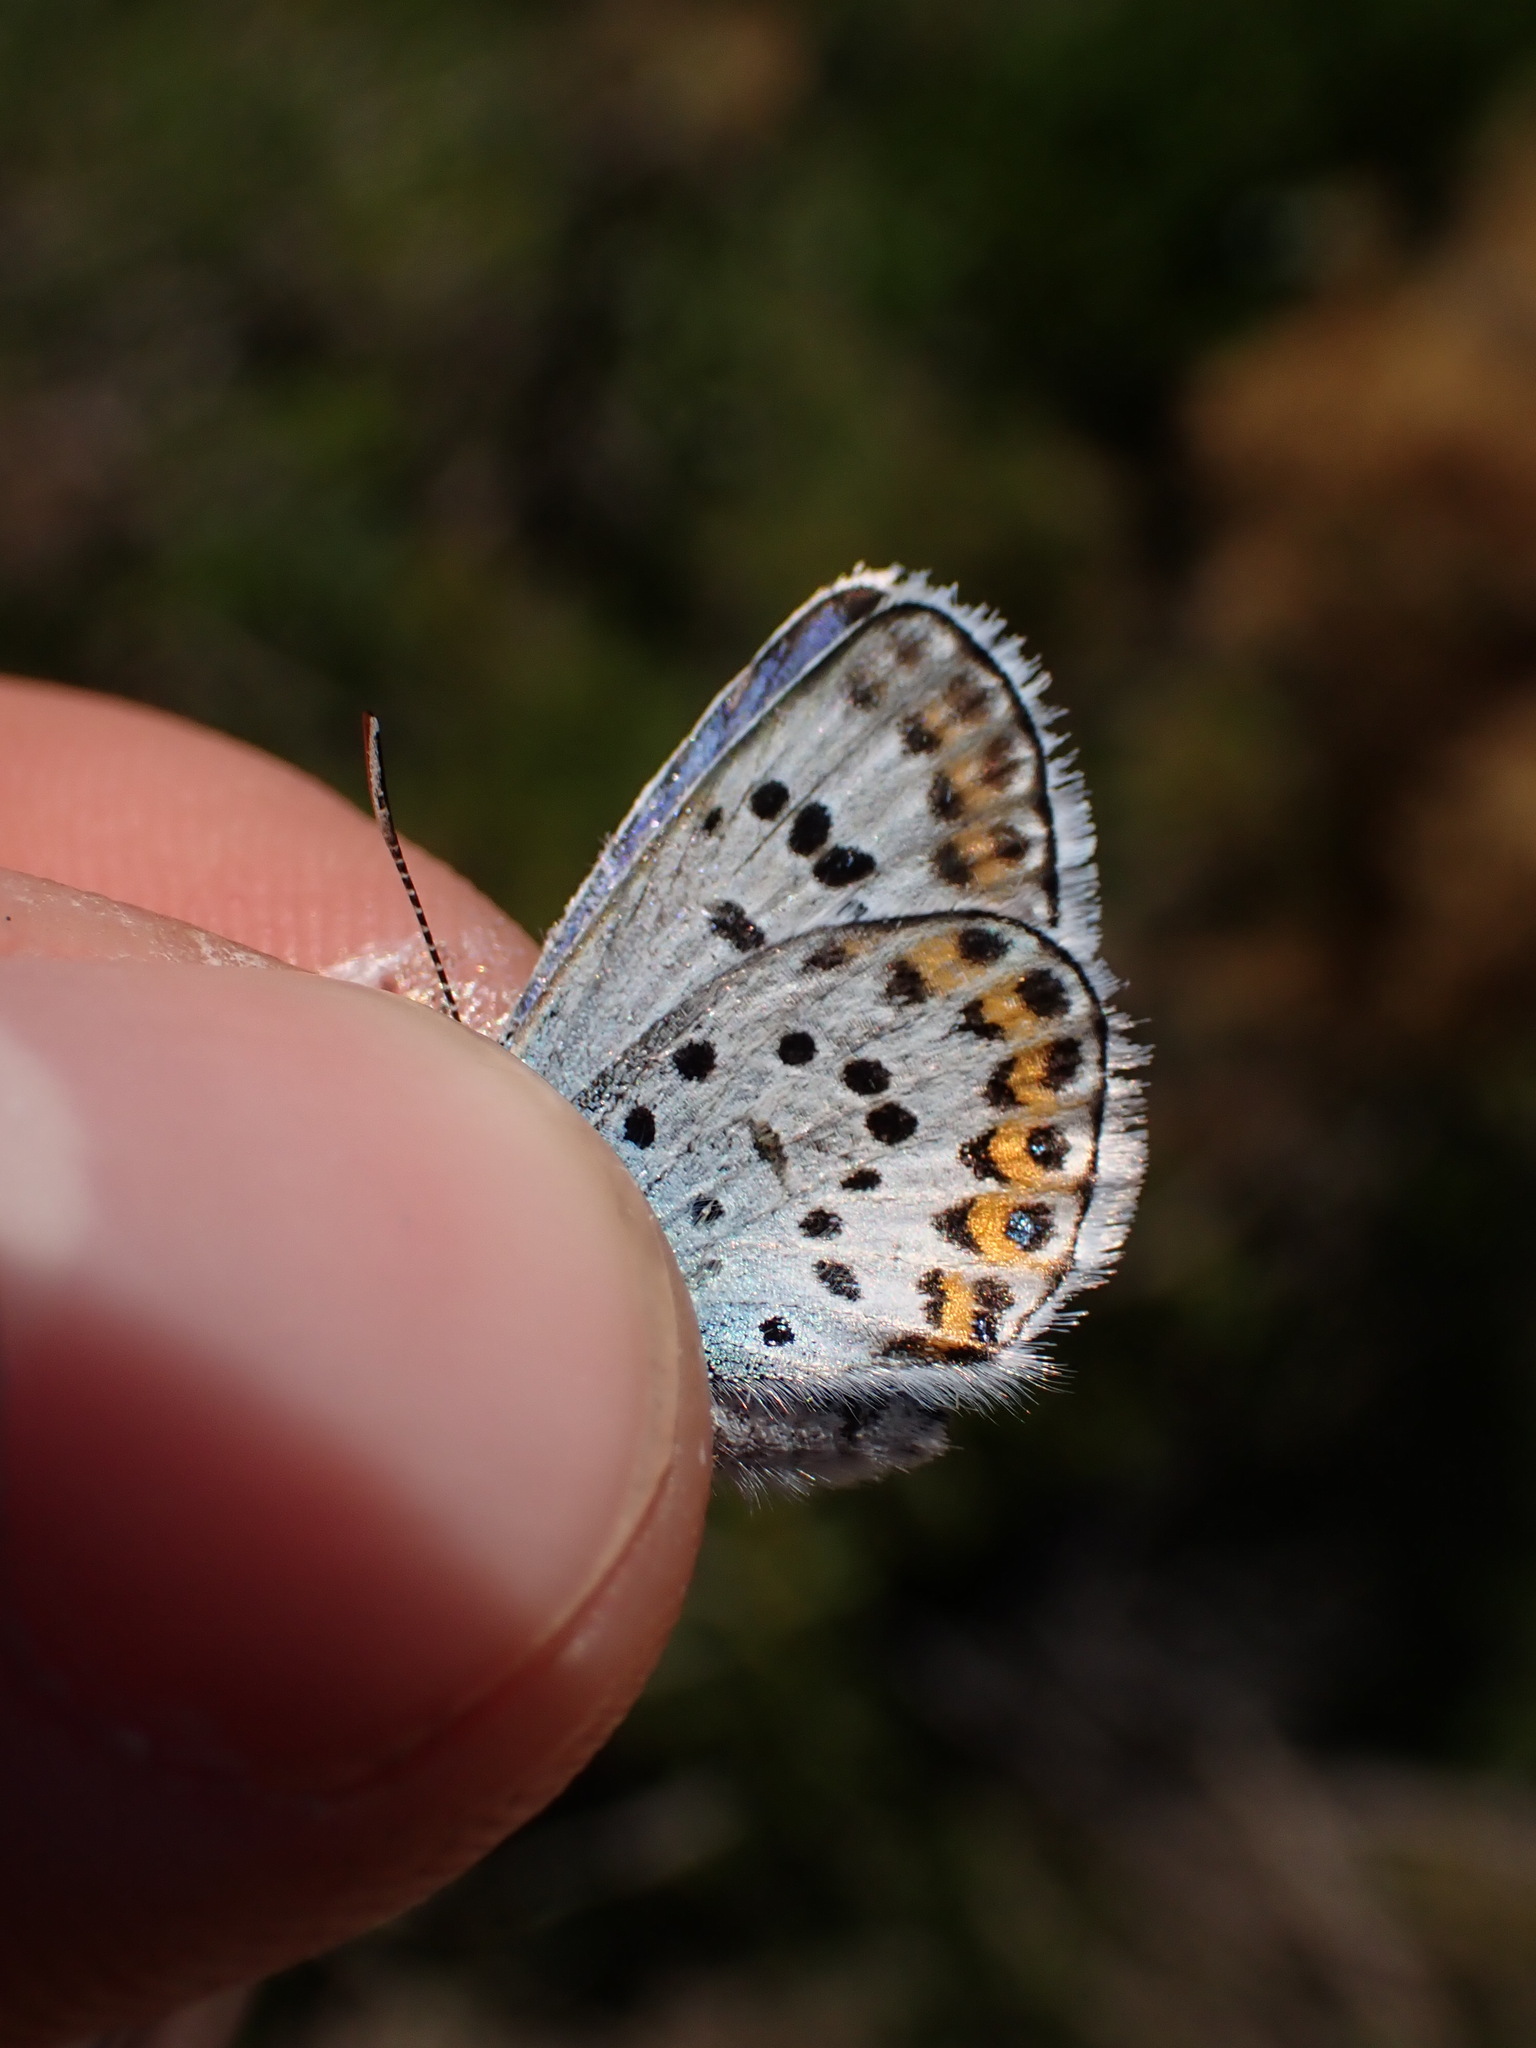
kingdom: Animalia
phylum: Arthropoda
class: Insecta
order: Lepidoptera
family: Lycaenidae
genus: Plebejus
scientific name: Plebejus argus
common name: Silver-studded blue
